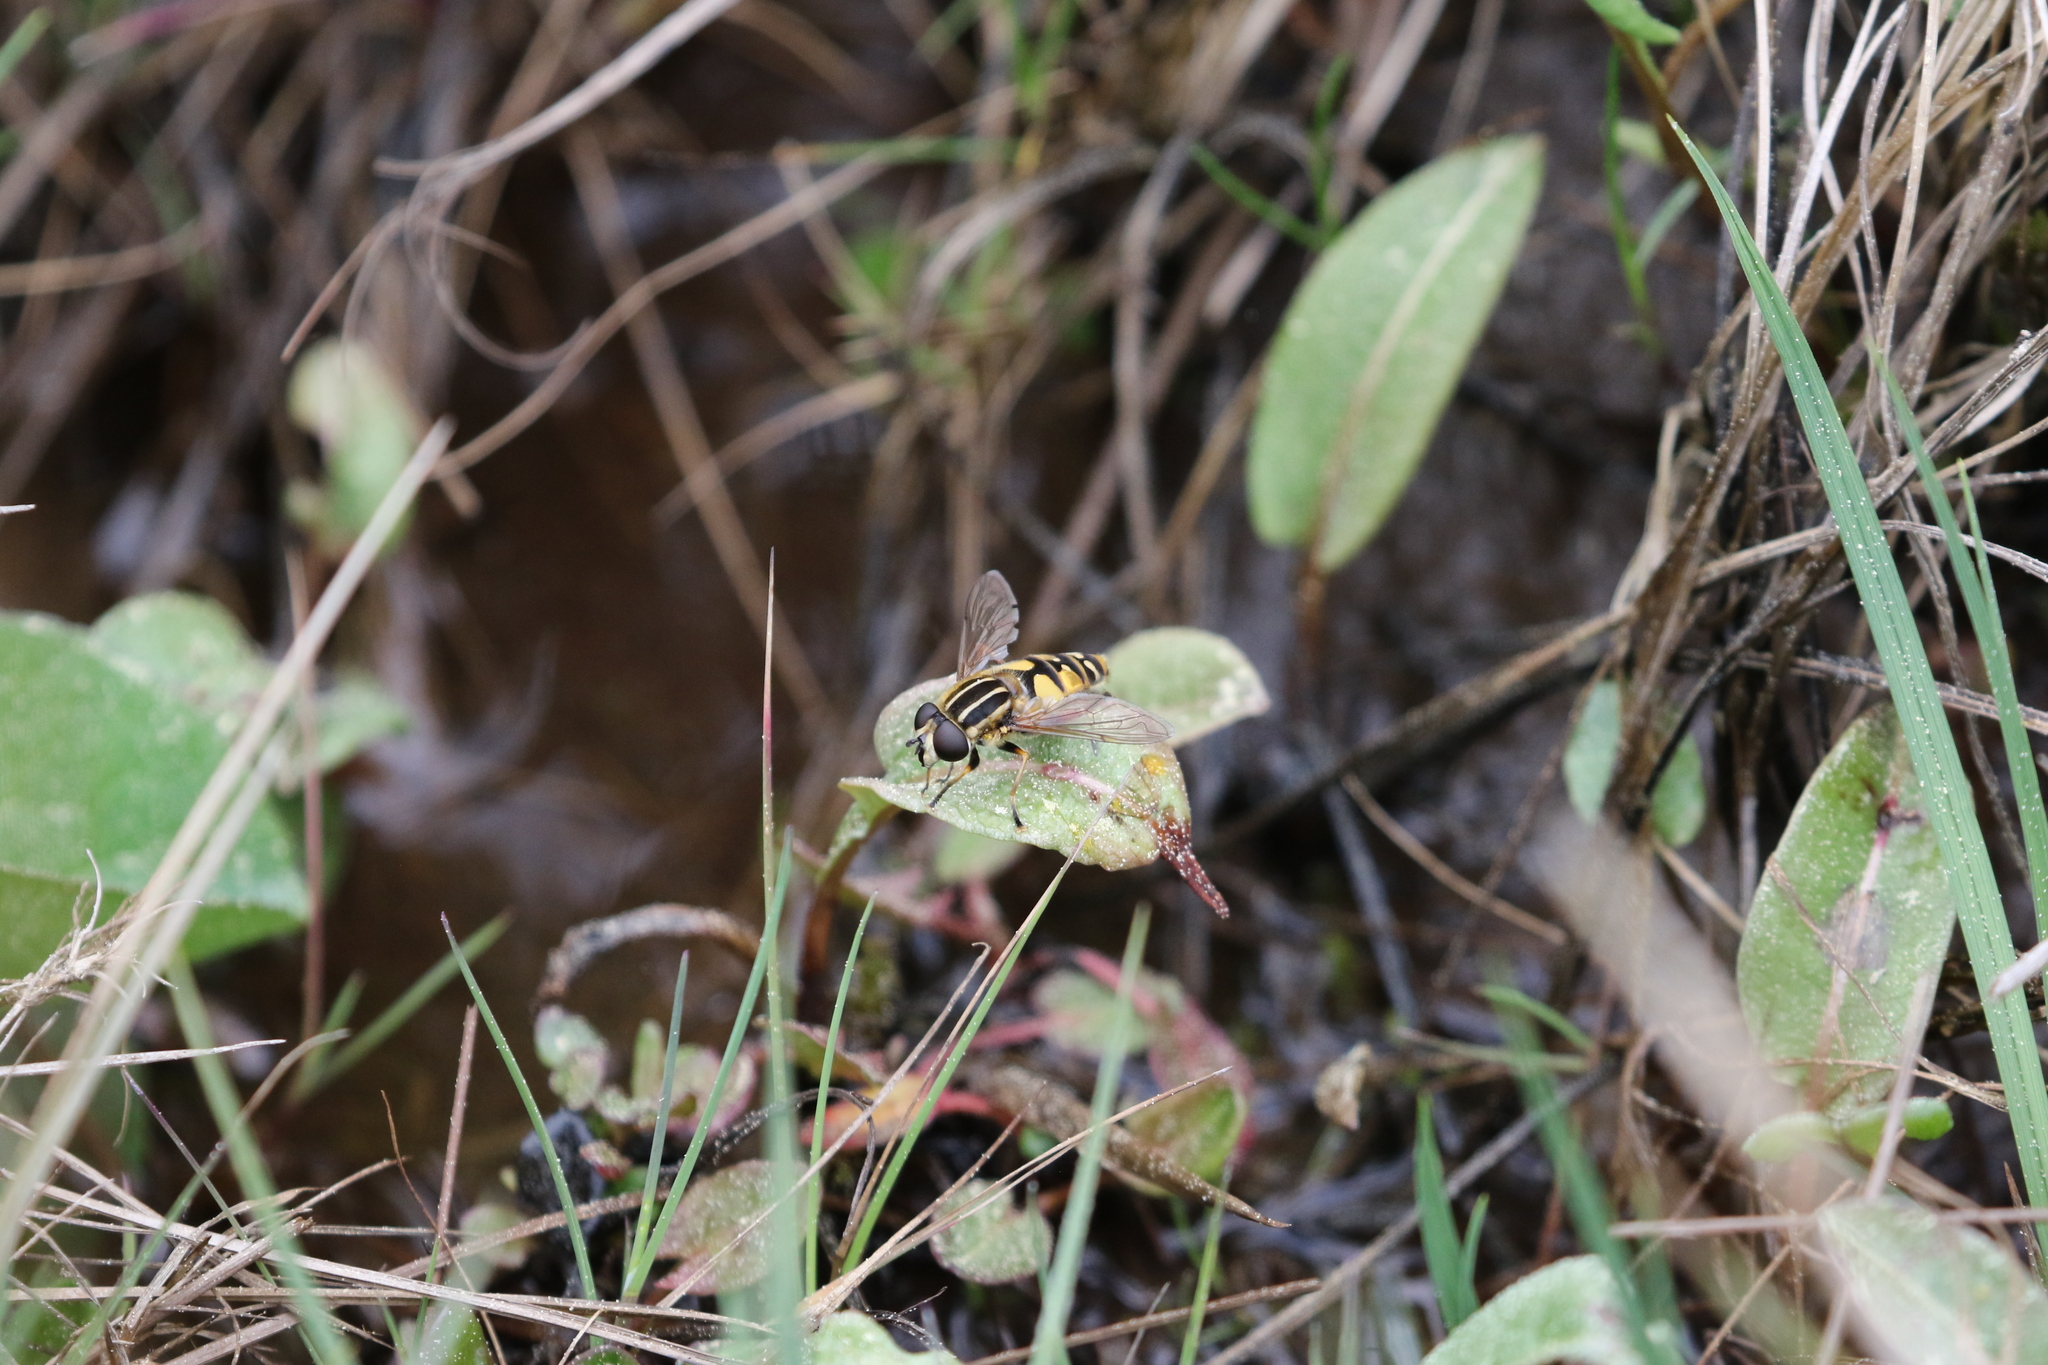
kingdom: Animalia
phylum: Arthropoda
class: Insecta
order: Diptera
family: Syrphidae
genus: Helophilus
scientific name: Helophilus pendulus
